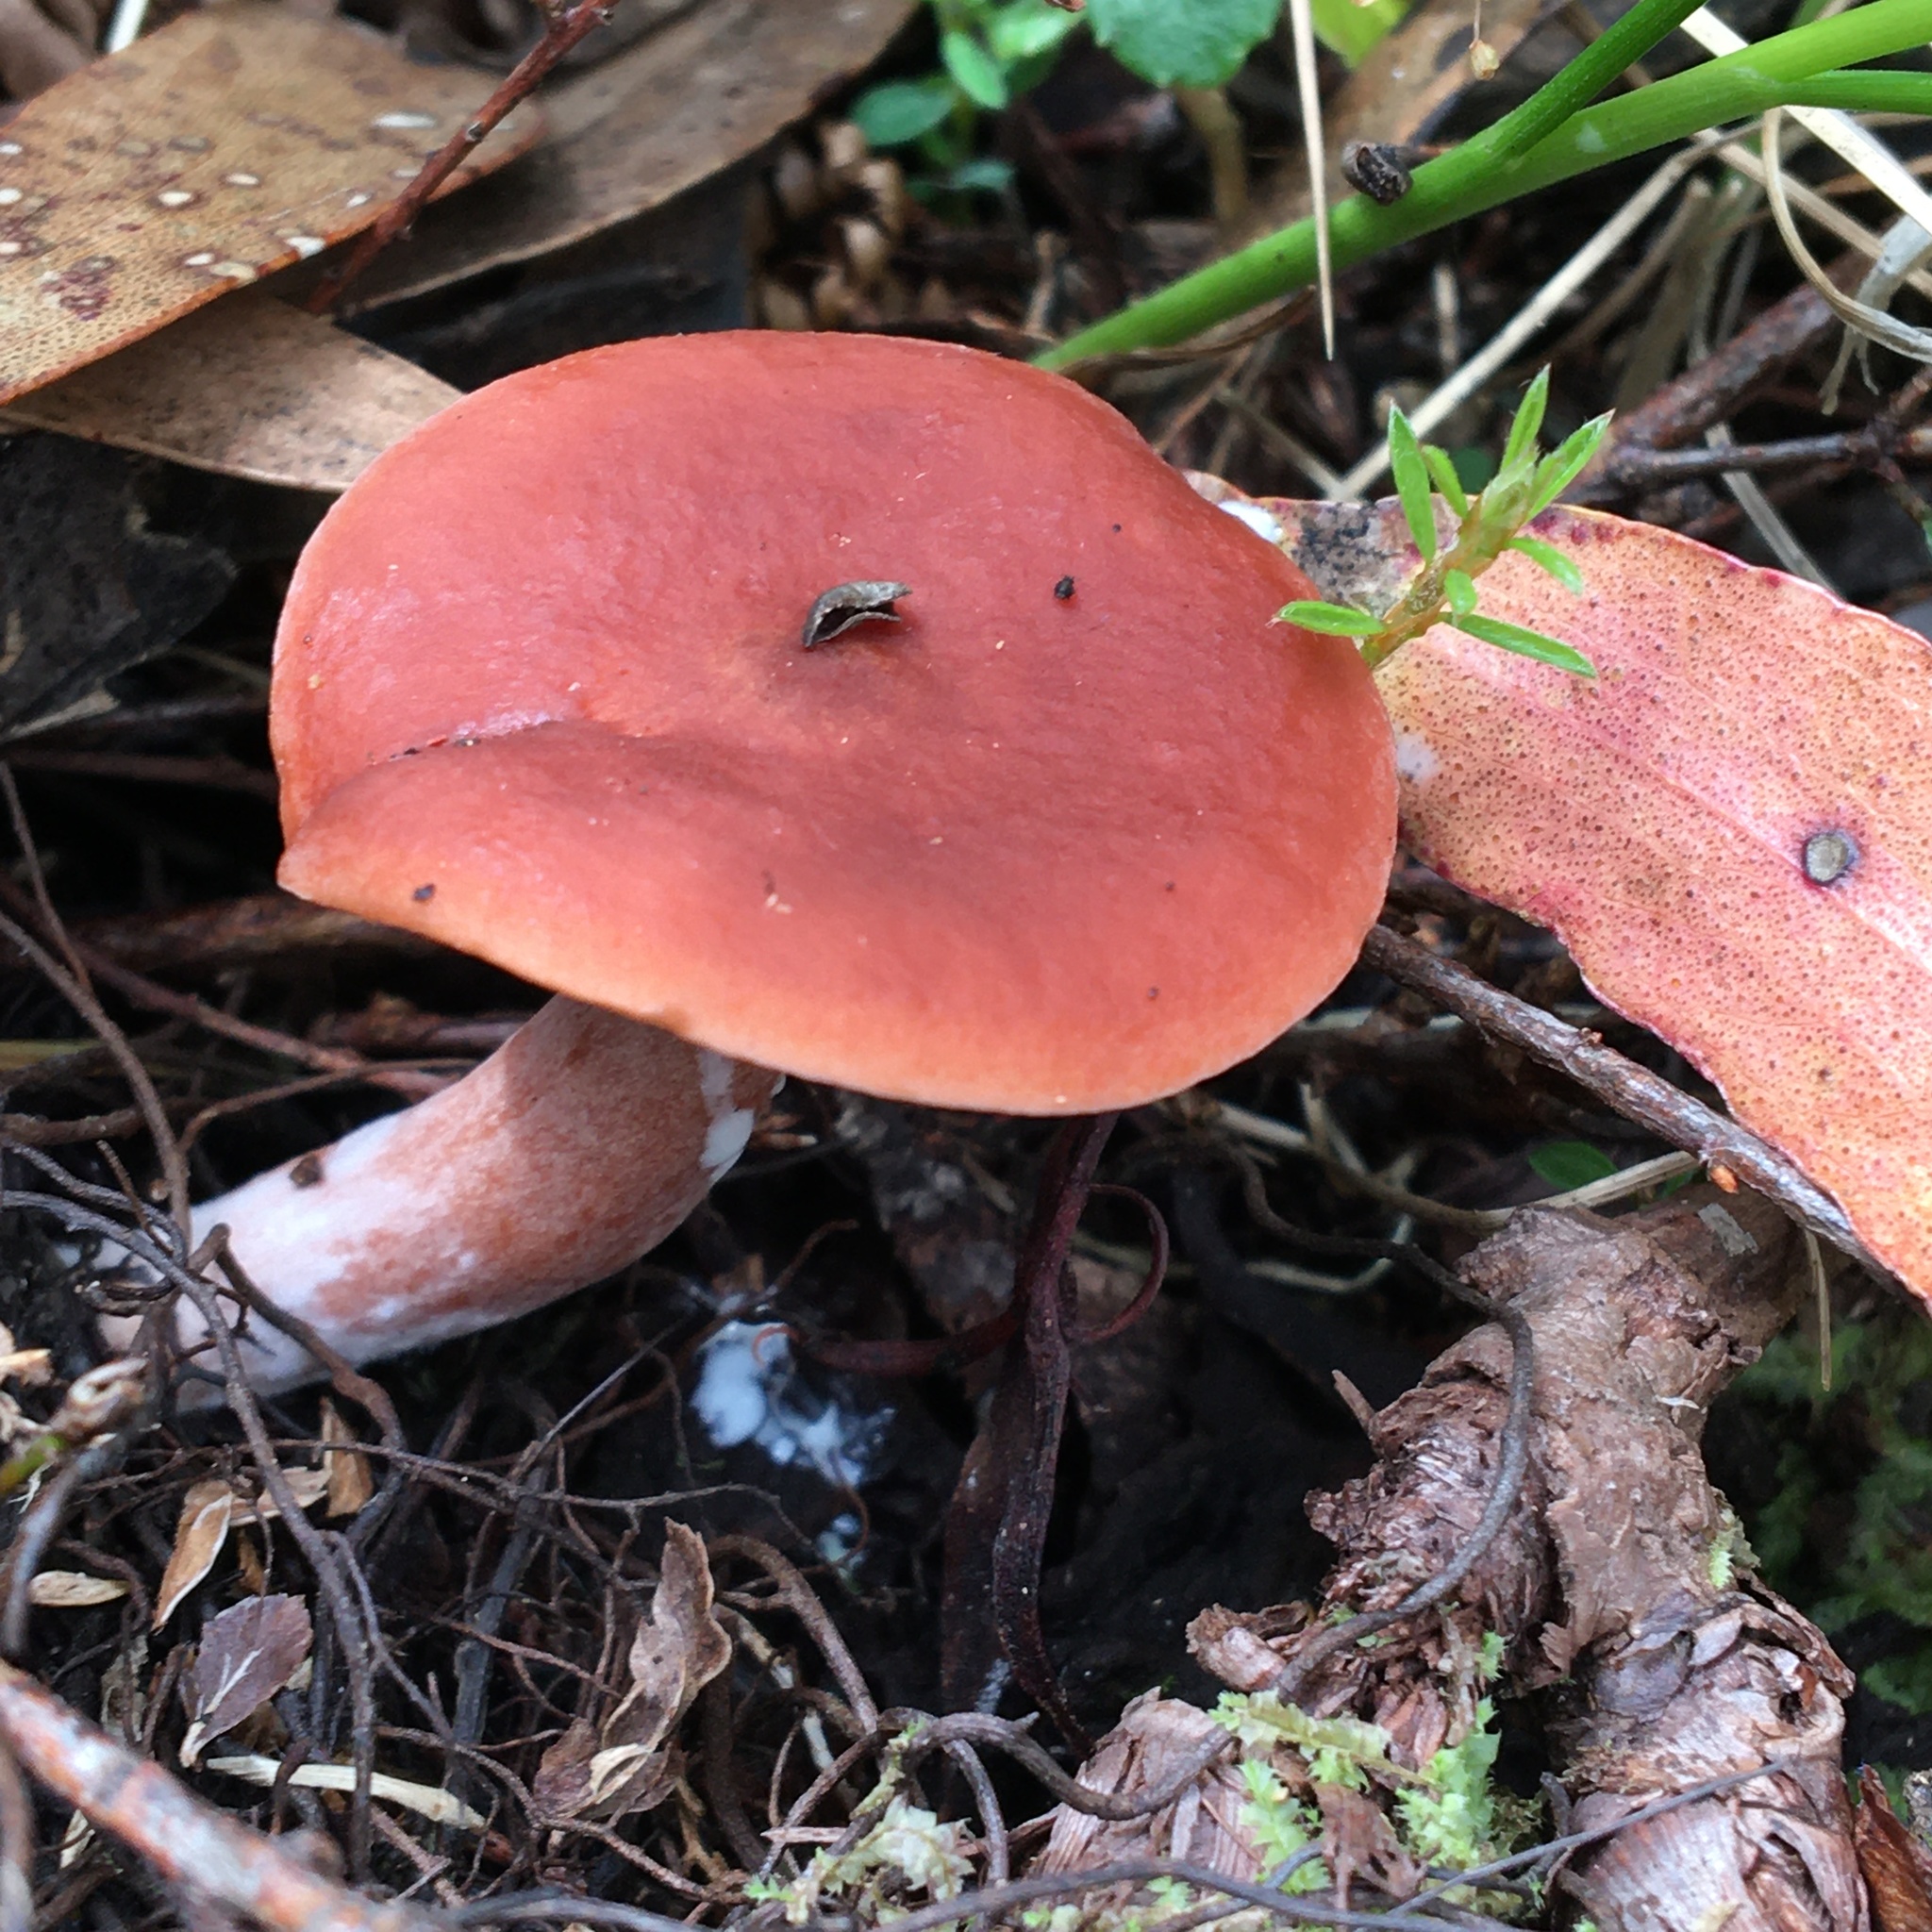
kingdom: Fungi
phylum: Basidiomycota
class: Agaricomycetes
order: Russulales
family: Russulaceae
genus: Lactarius
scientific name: Lactarius eucalypti
